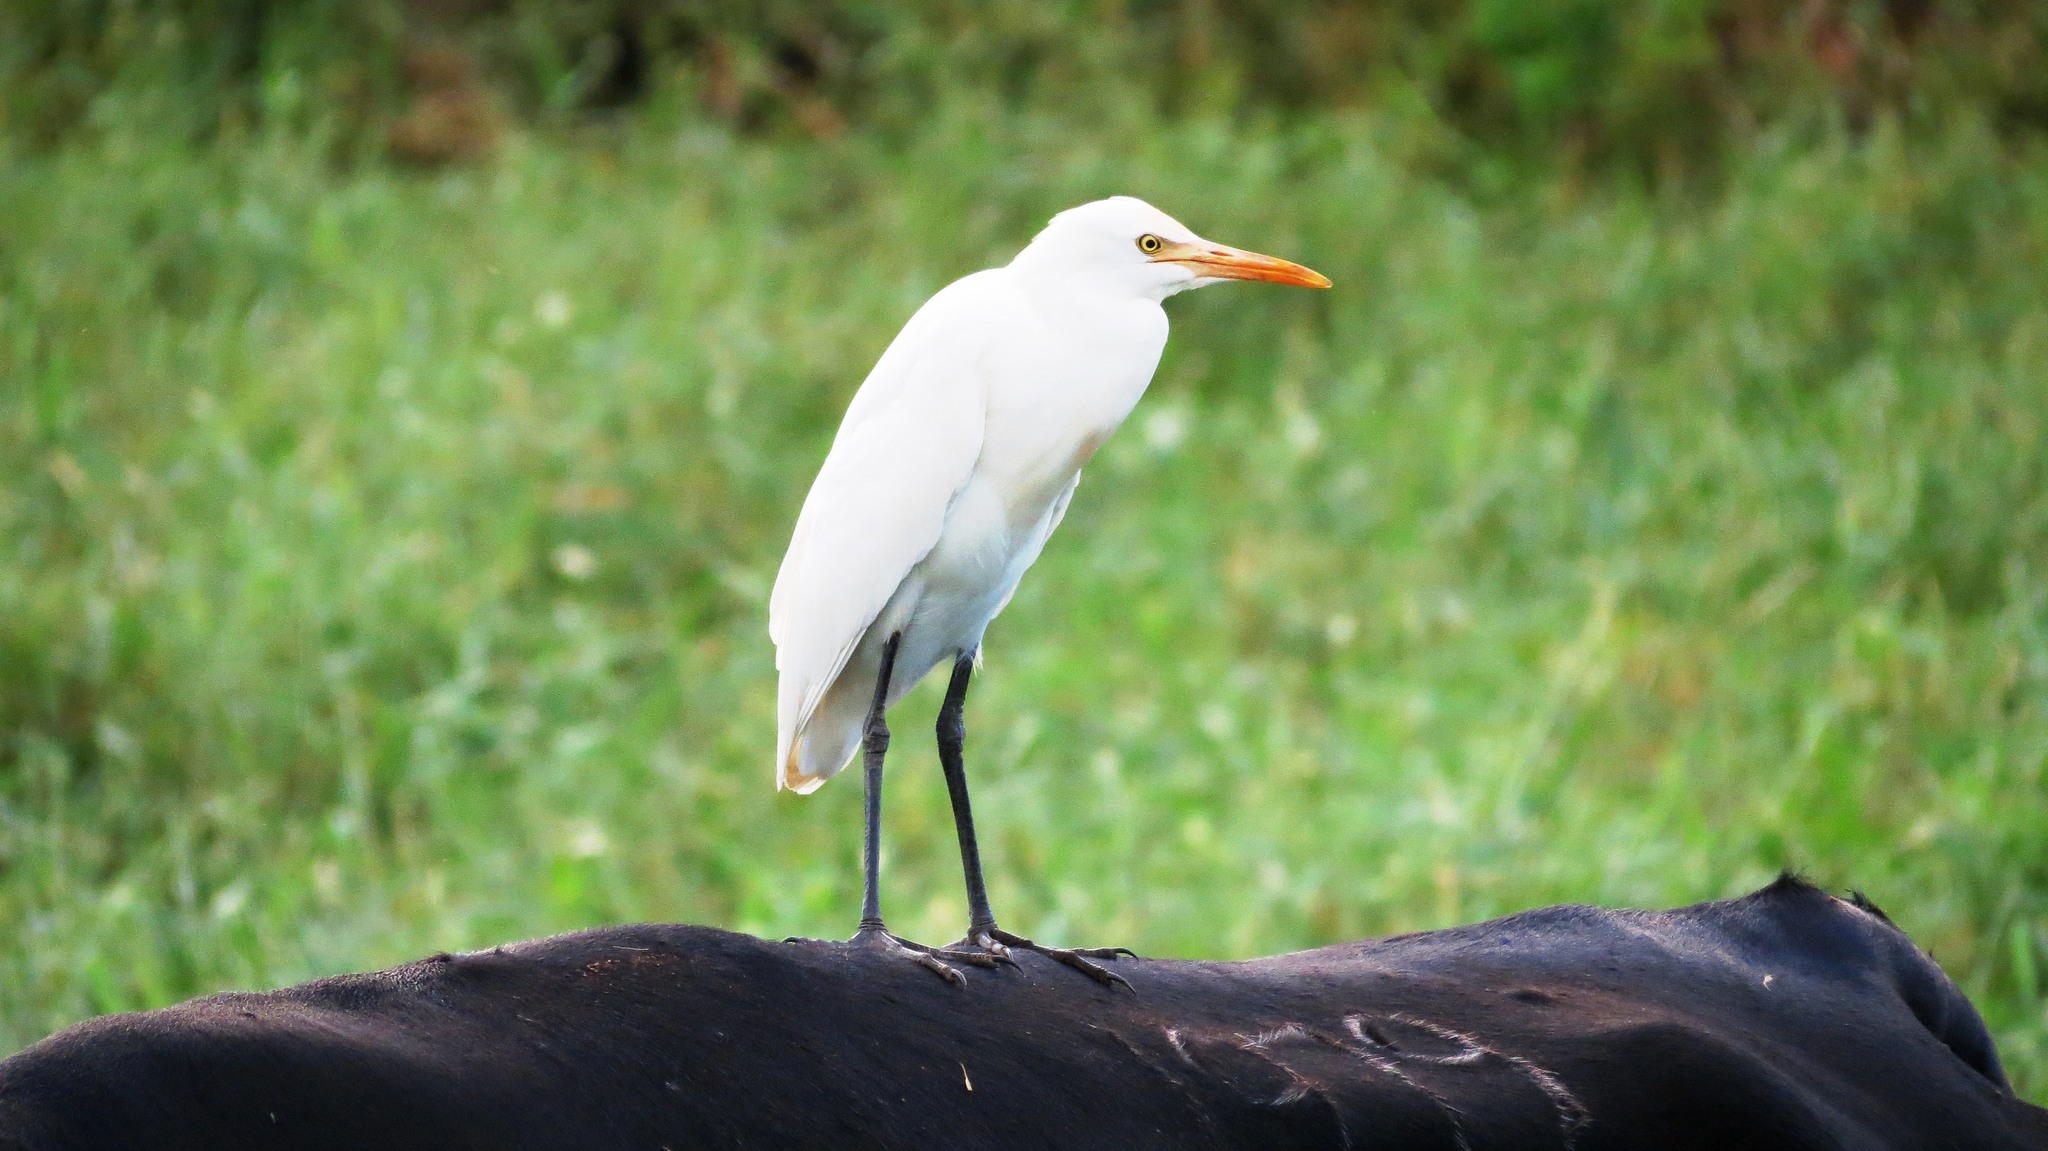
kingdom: Animalia
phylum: Chordata
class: Aves
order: Pelecaniformes
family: Ardeidae
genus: Bubulcus
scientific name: Bubulcus coromandus
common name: Eastern cattle egret
